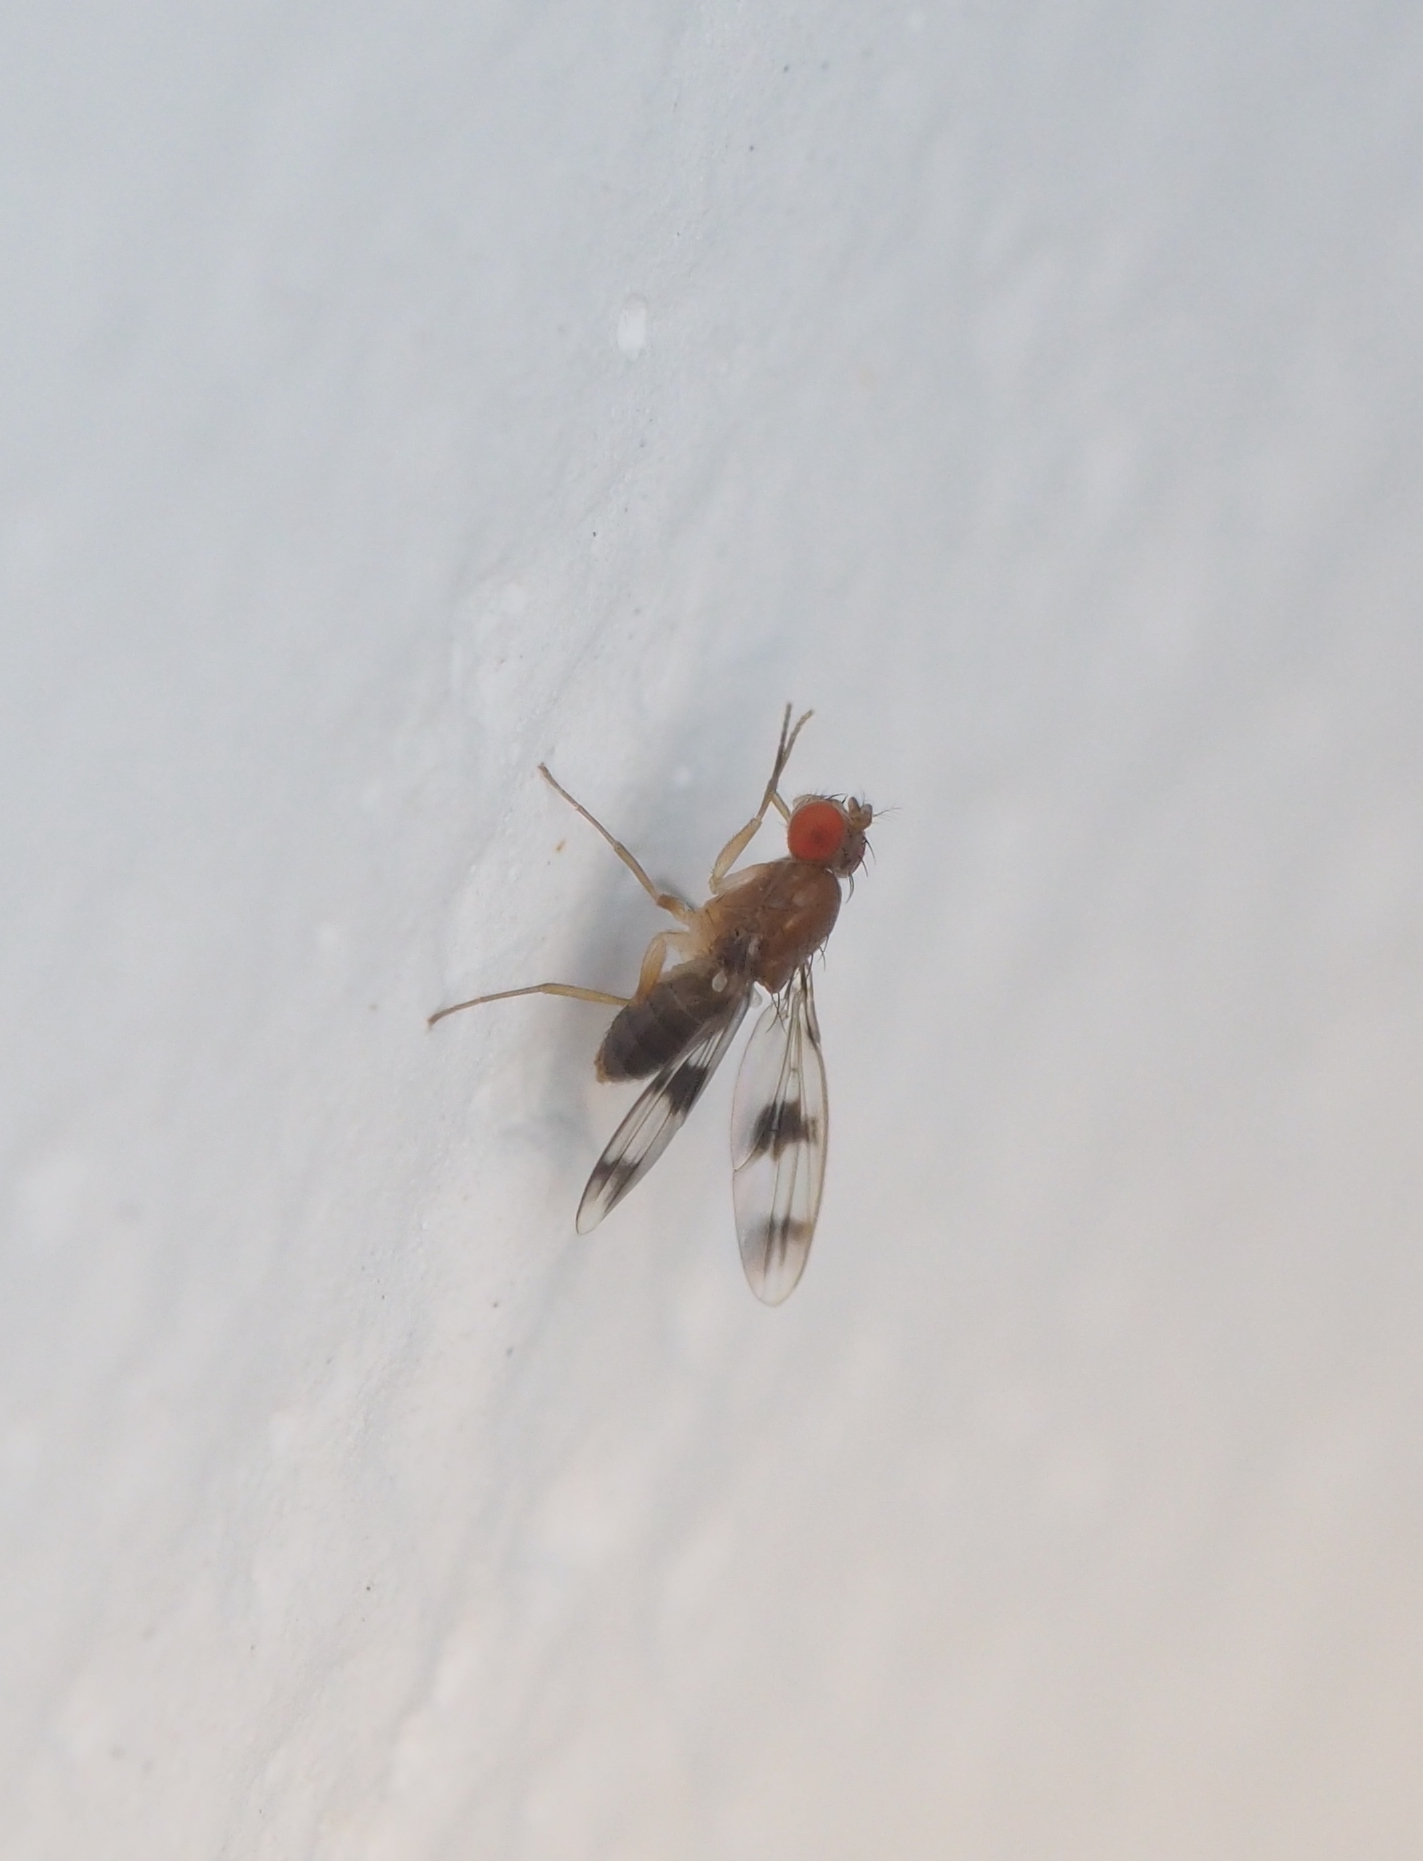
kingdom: Animalia
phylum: Arthropoda
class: Insecta
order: Diptera
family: Drosophilidae
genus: Chymomyza
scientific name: Chymomyza amoena
